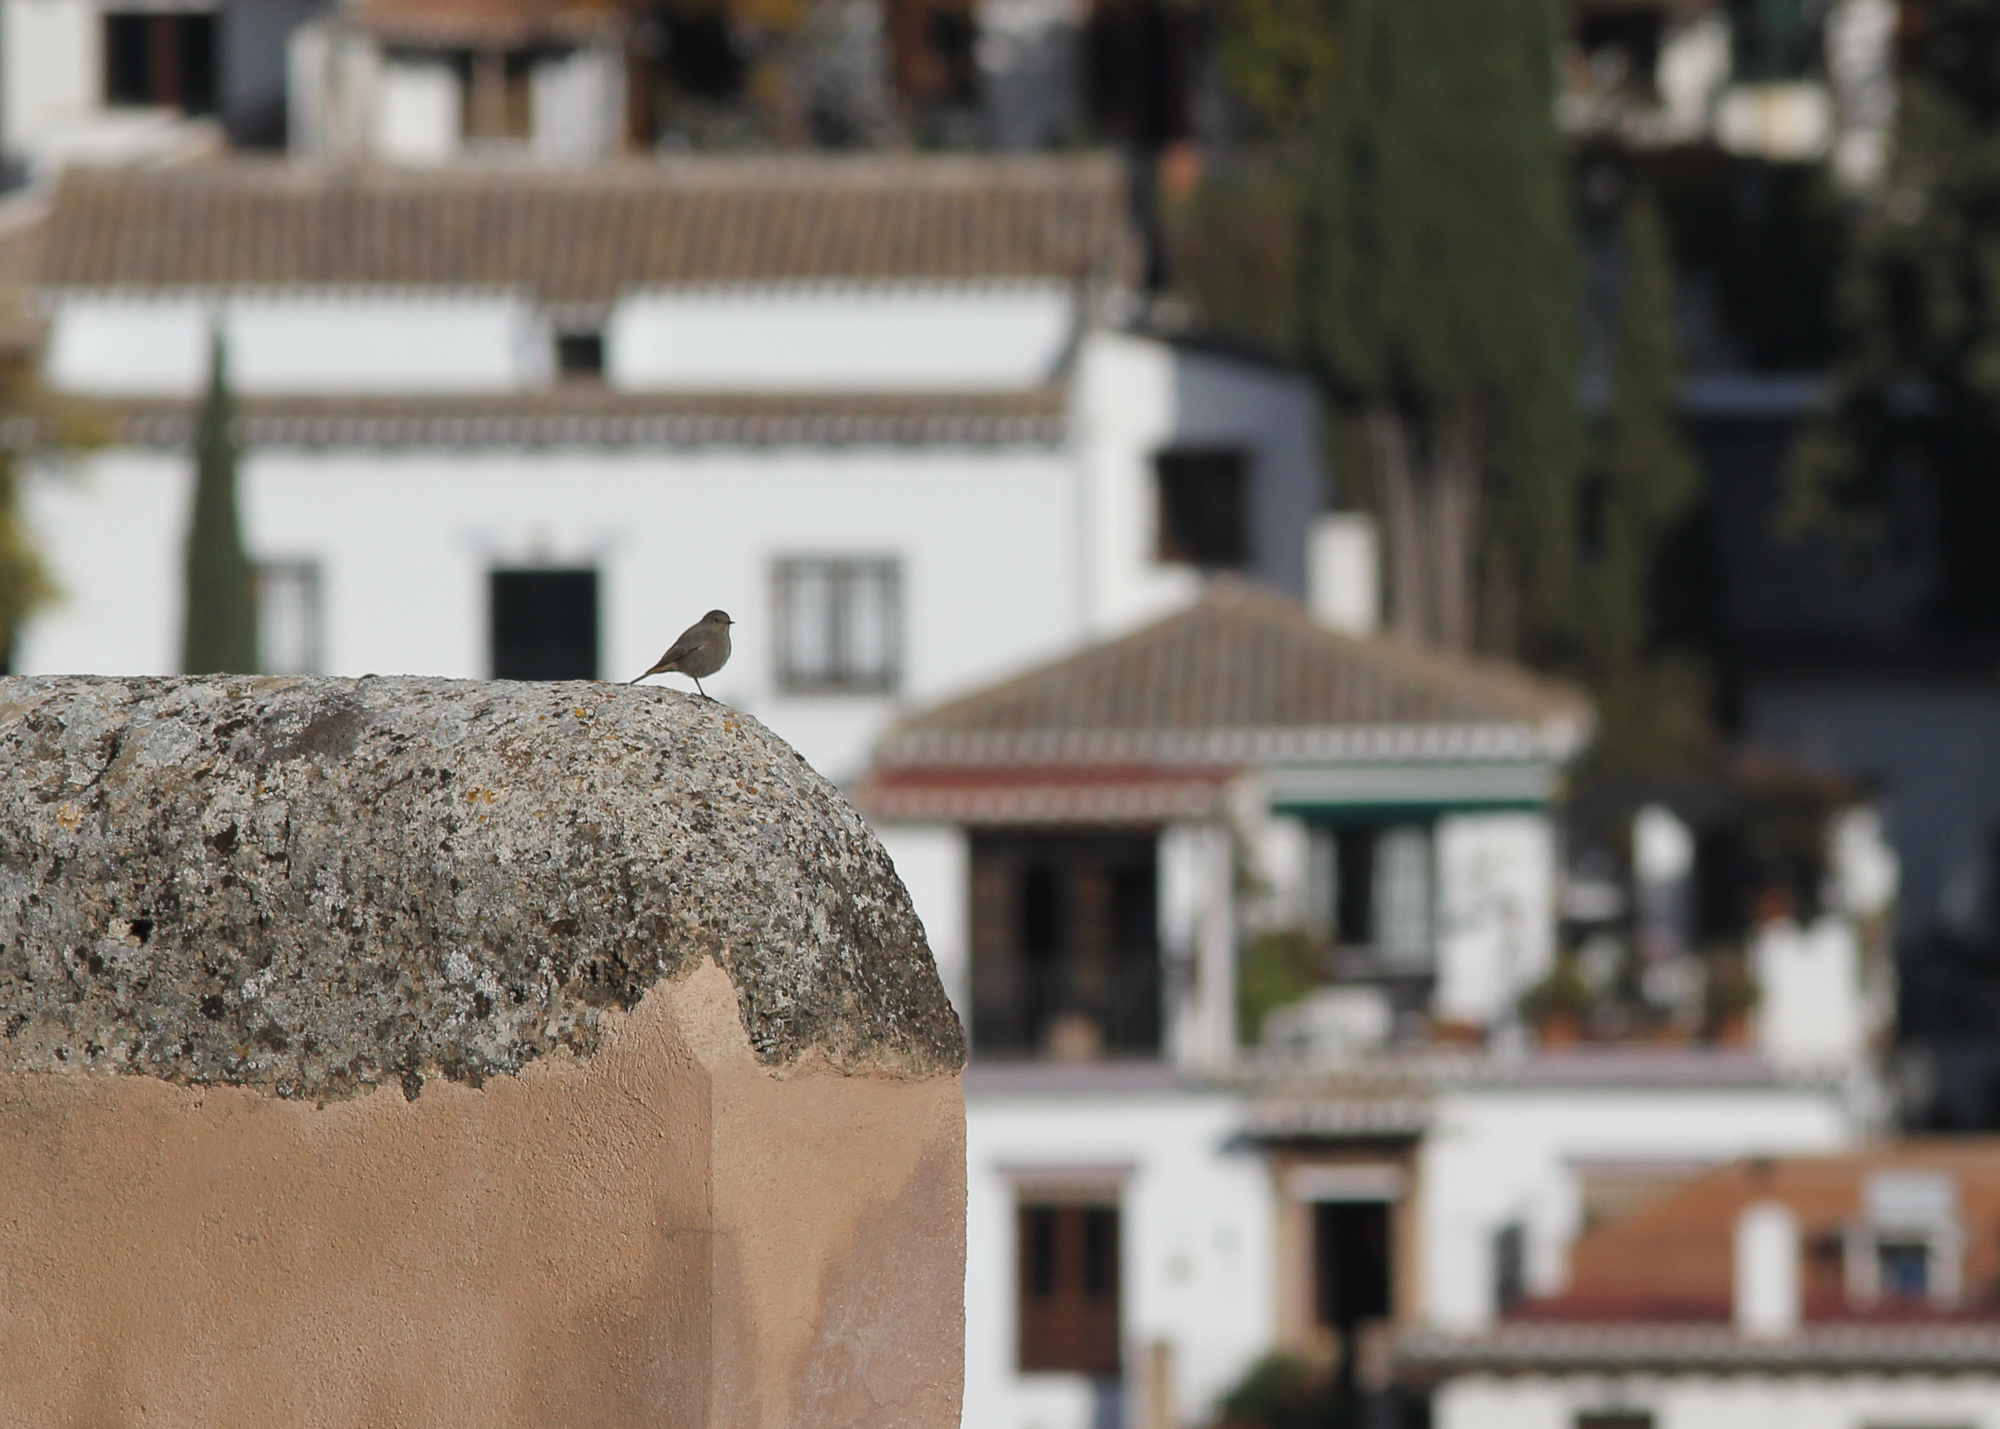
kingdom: Animalia
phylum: Chordata
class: Aves
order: Passeriformes
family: Muscicapidae
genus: Phoenicurus
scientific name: Phoenicurus ochruros
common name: Black redstart
